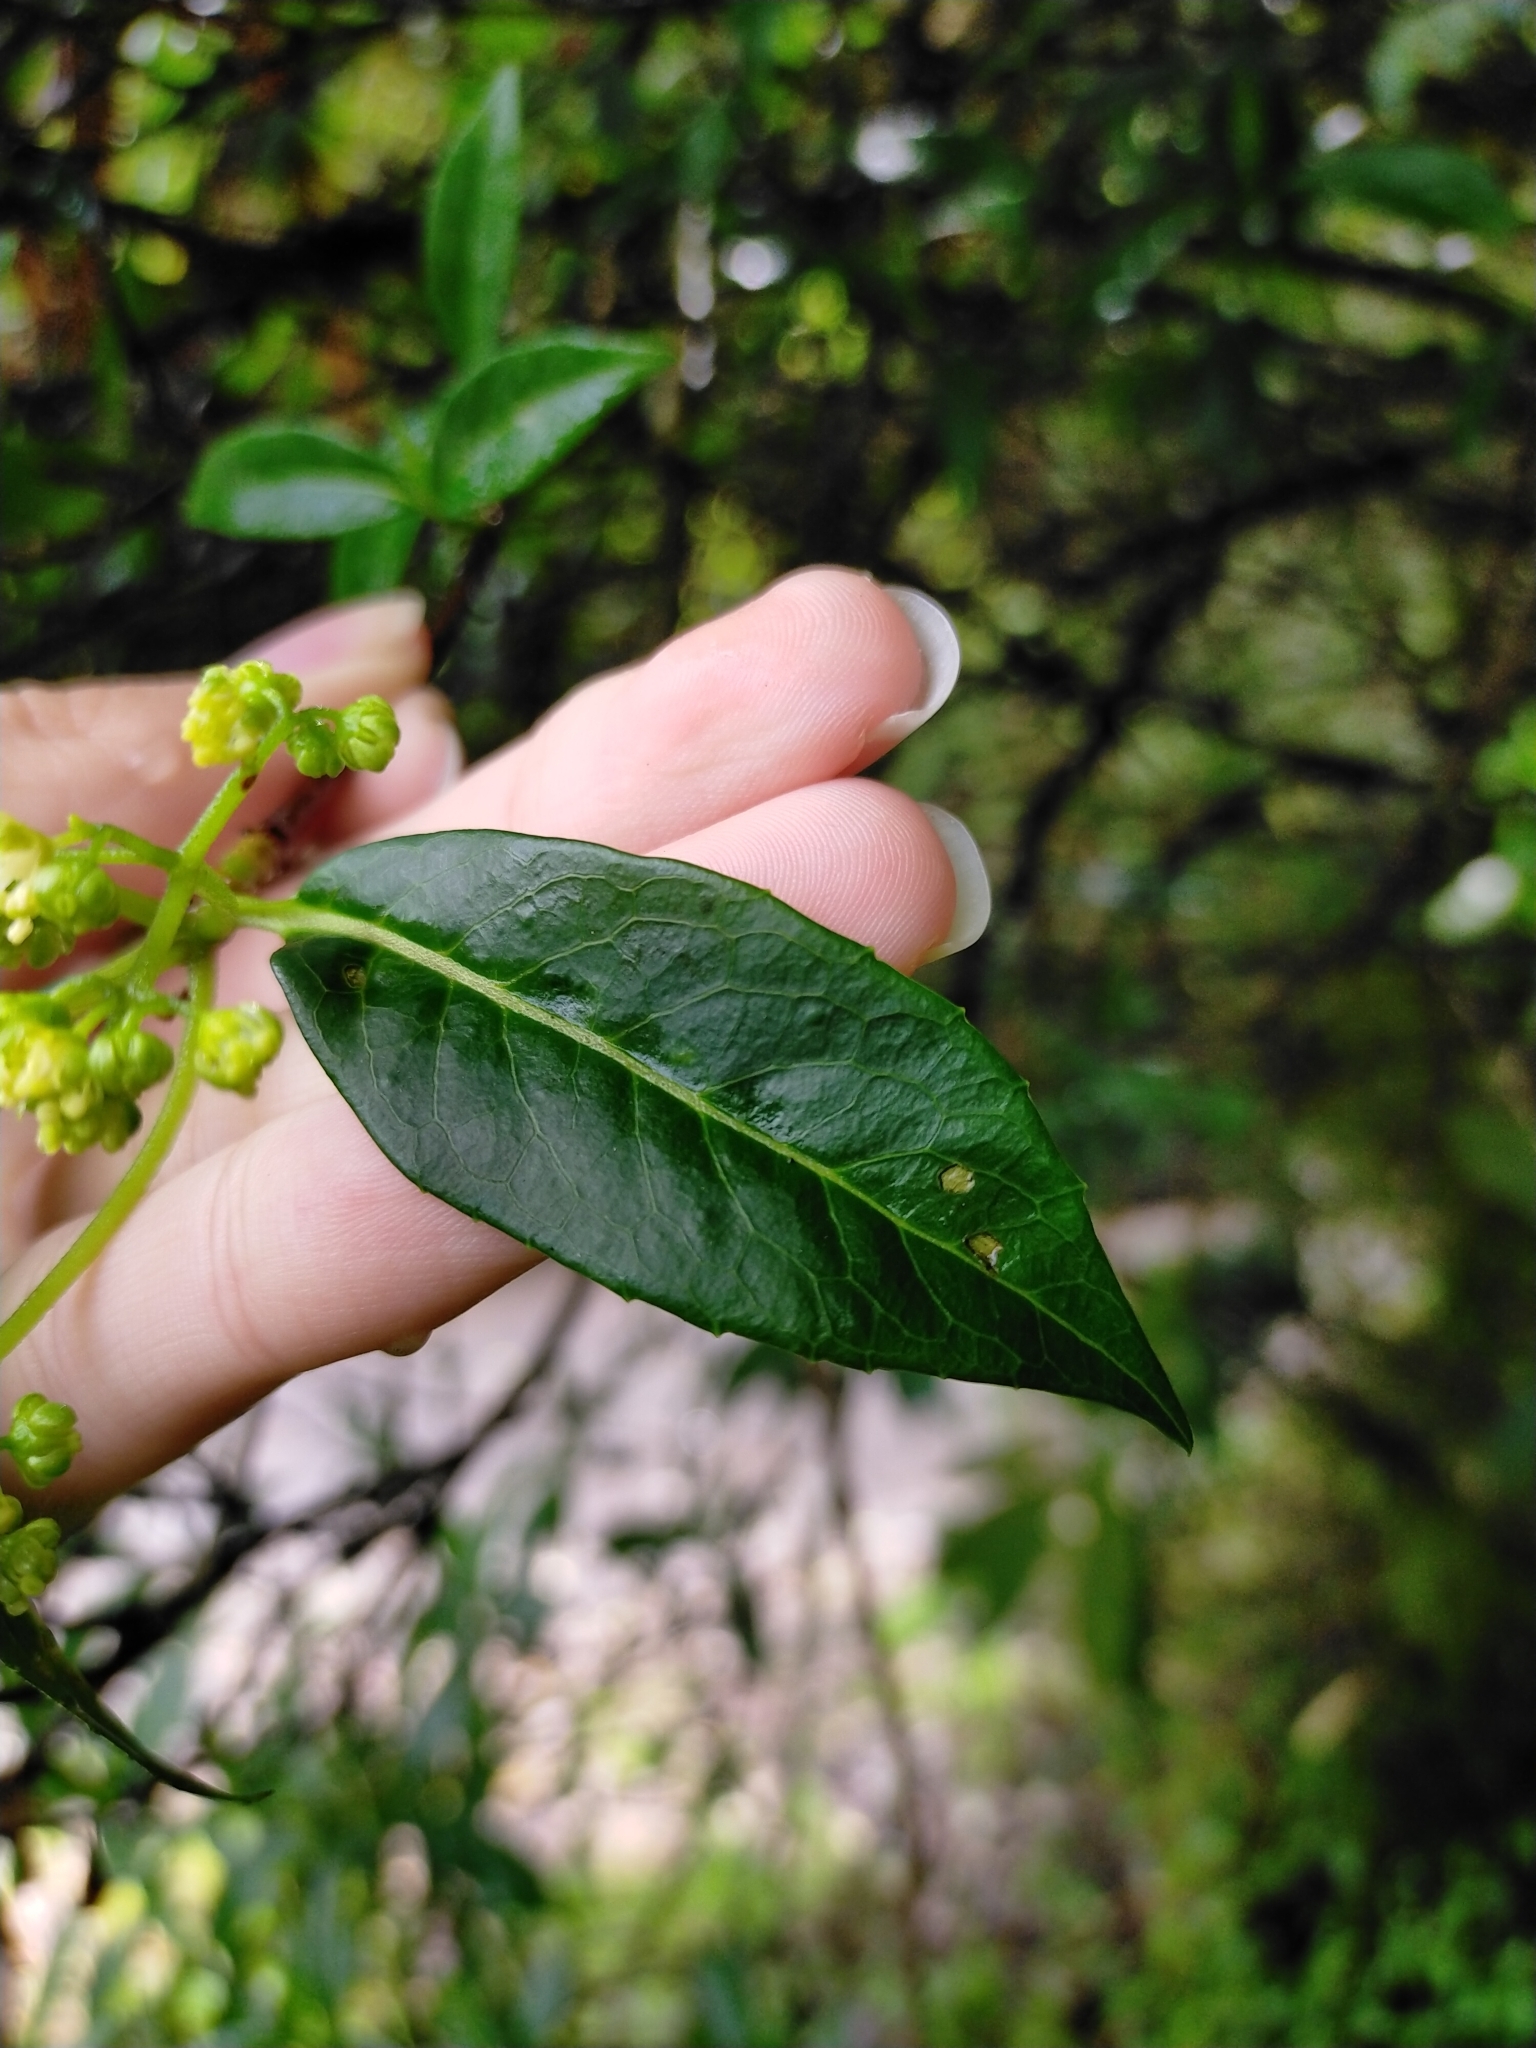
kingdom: Plantae
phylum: Tracheophyta
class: Magnoliopsida
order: Cornales
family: Hydrangeaceae
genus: Hydrangea
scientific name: Hydrangea chinensis
